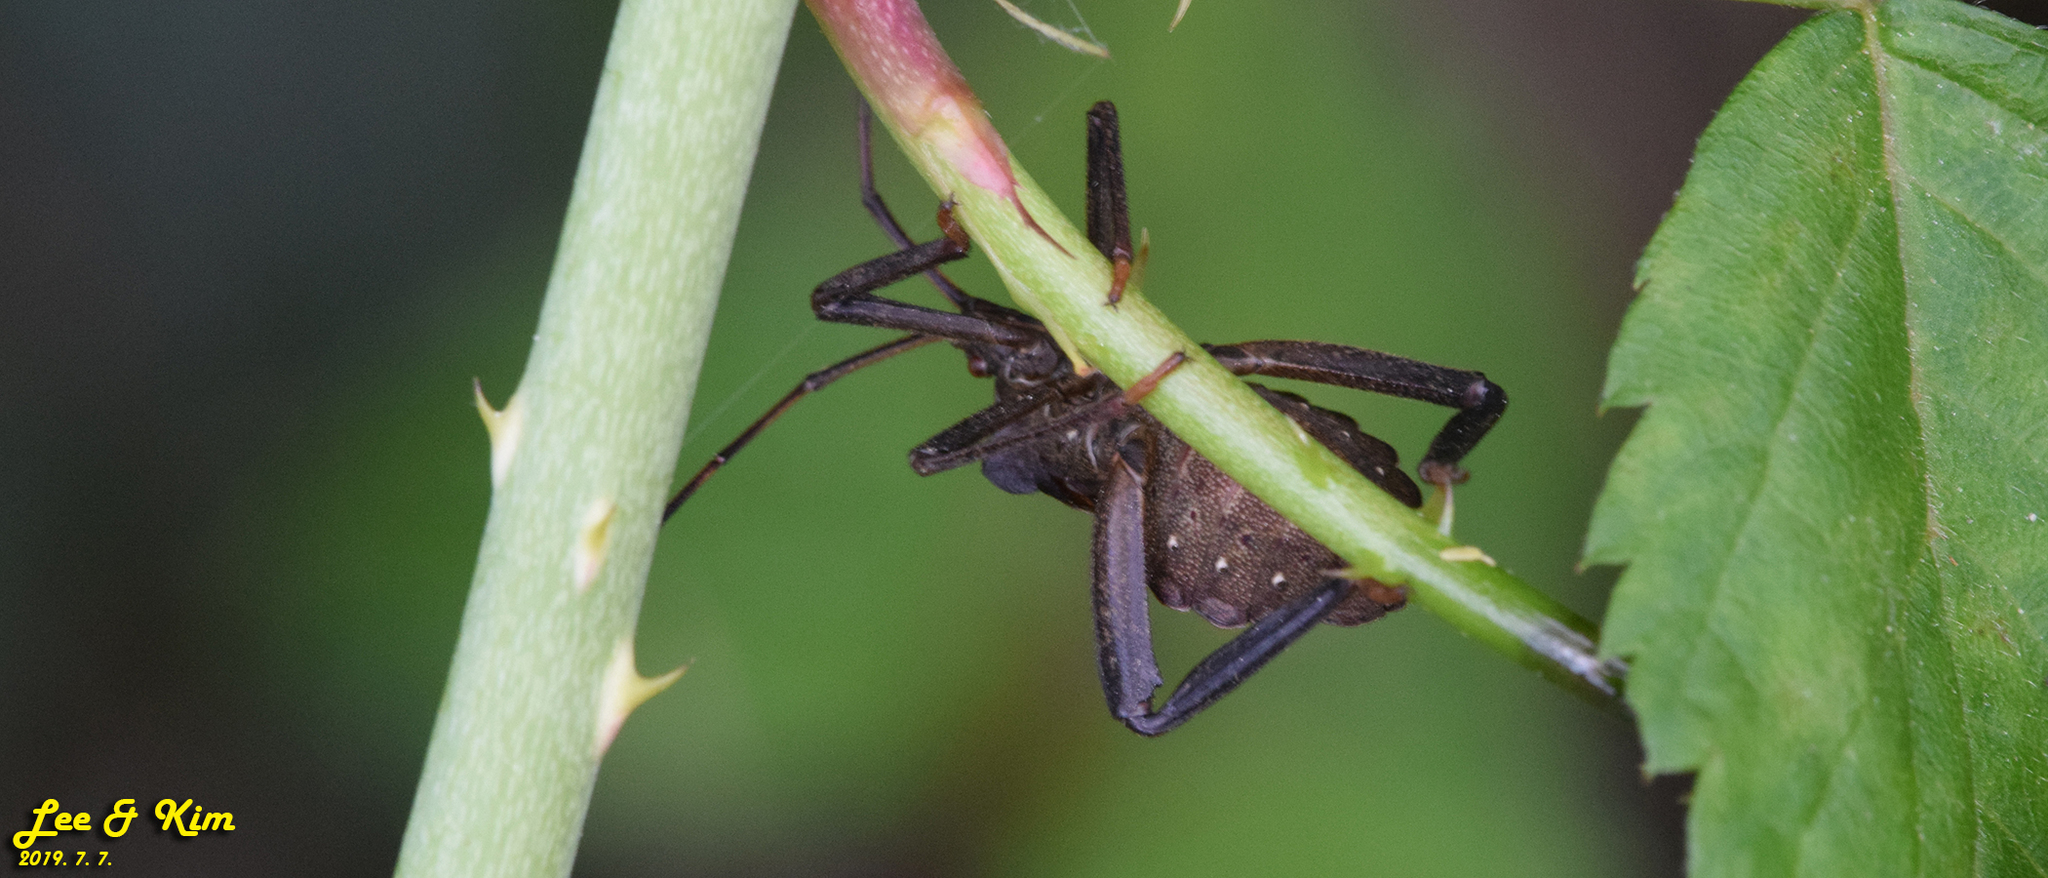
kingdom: Animalia
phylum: Arthropoda
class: Insecta
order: Hemiptera
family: Coreidae
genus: Molipteryx
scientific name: Molipteryx fuliginosa
